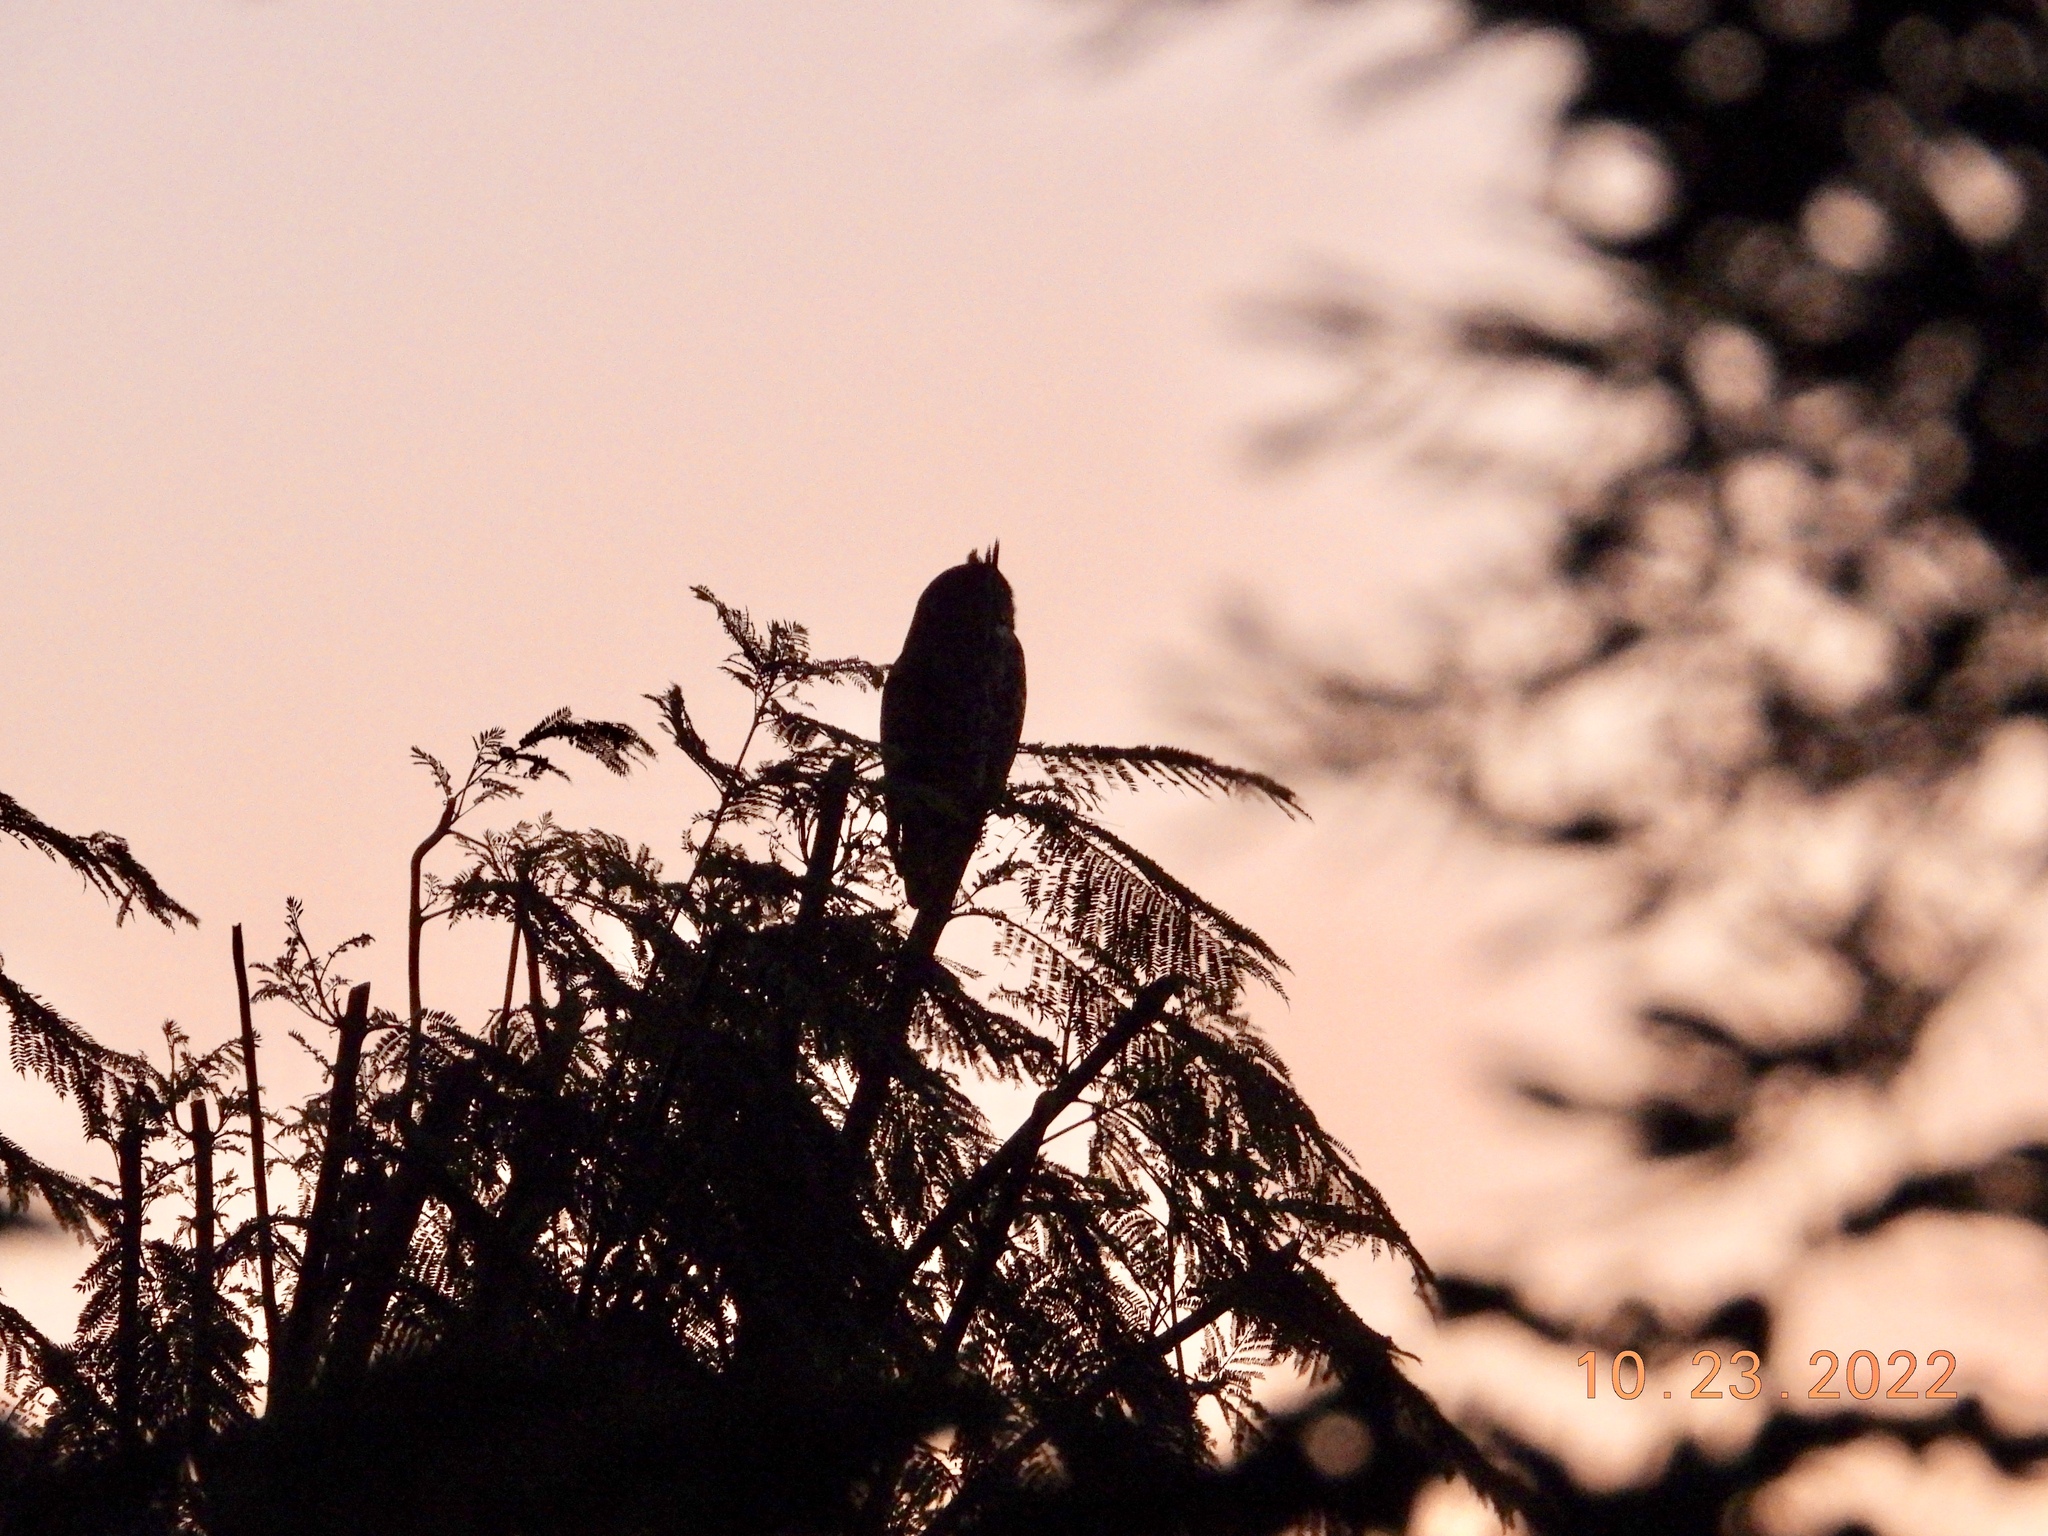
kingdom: Animalia
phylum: Chordata
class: Aves
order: Strigiformes
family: Strigidae
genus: Bubo
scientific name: Bubo virginianus
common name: Great horned owl
